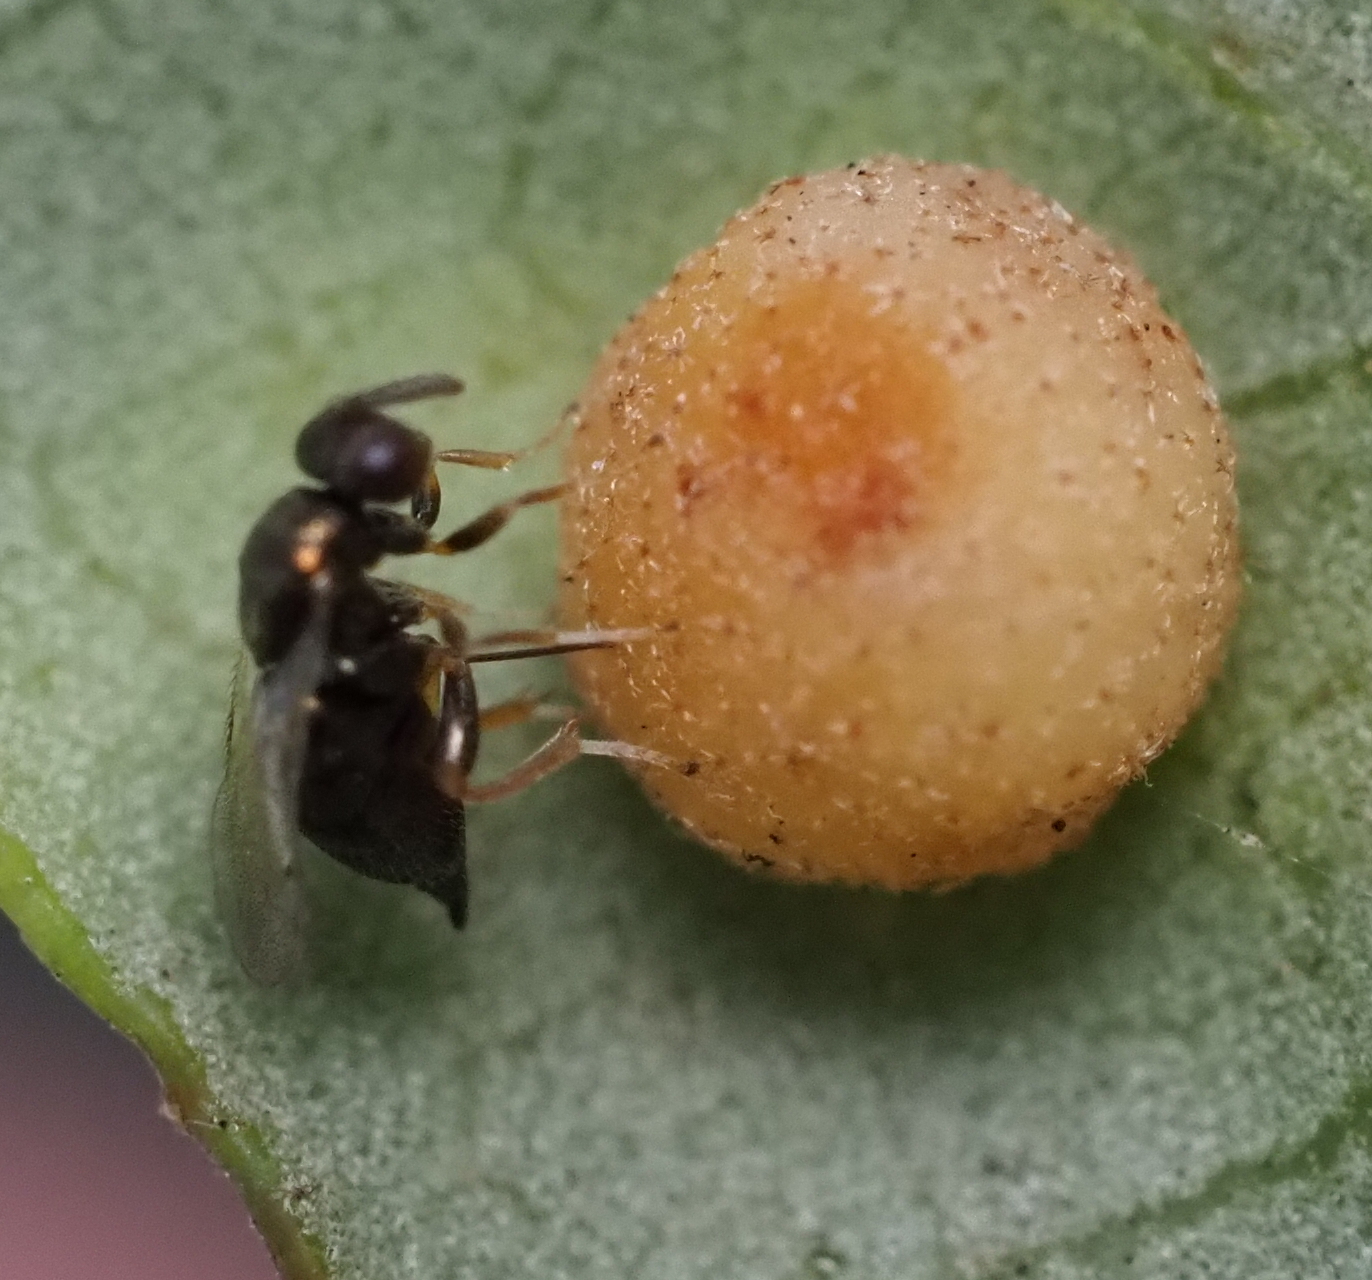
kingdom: Animalia
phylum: Arthropoda
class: Insecta
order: Hymenoptera
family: Cynipidae
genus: Belonocnema
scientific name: Belonocnema kinseyi
